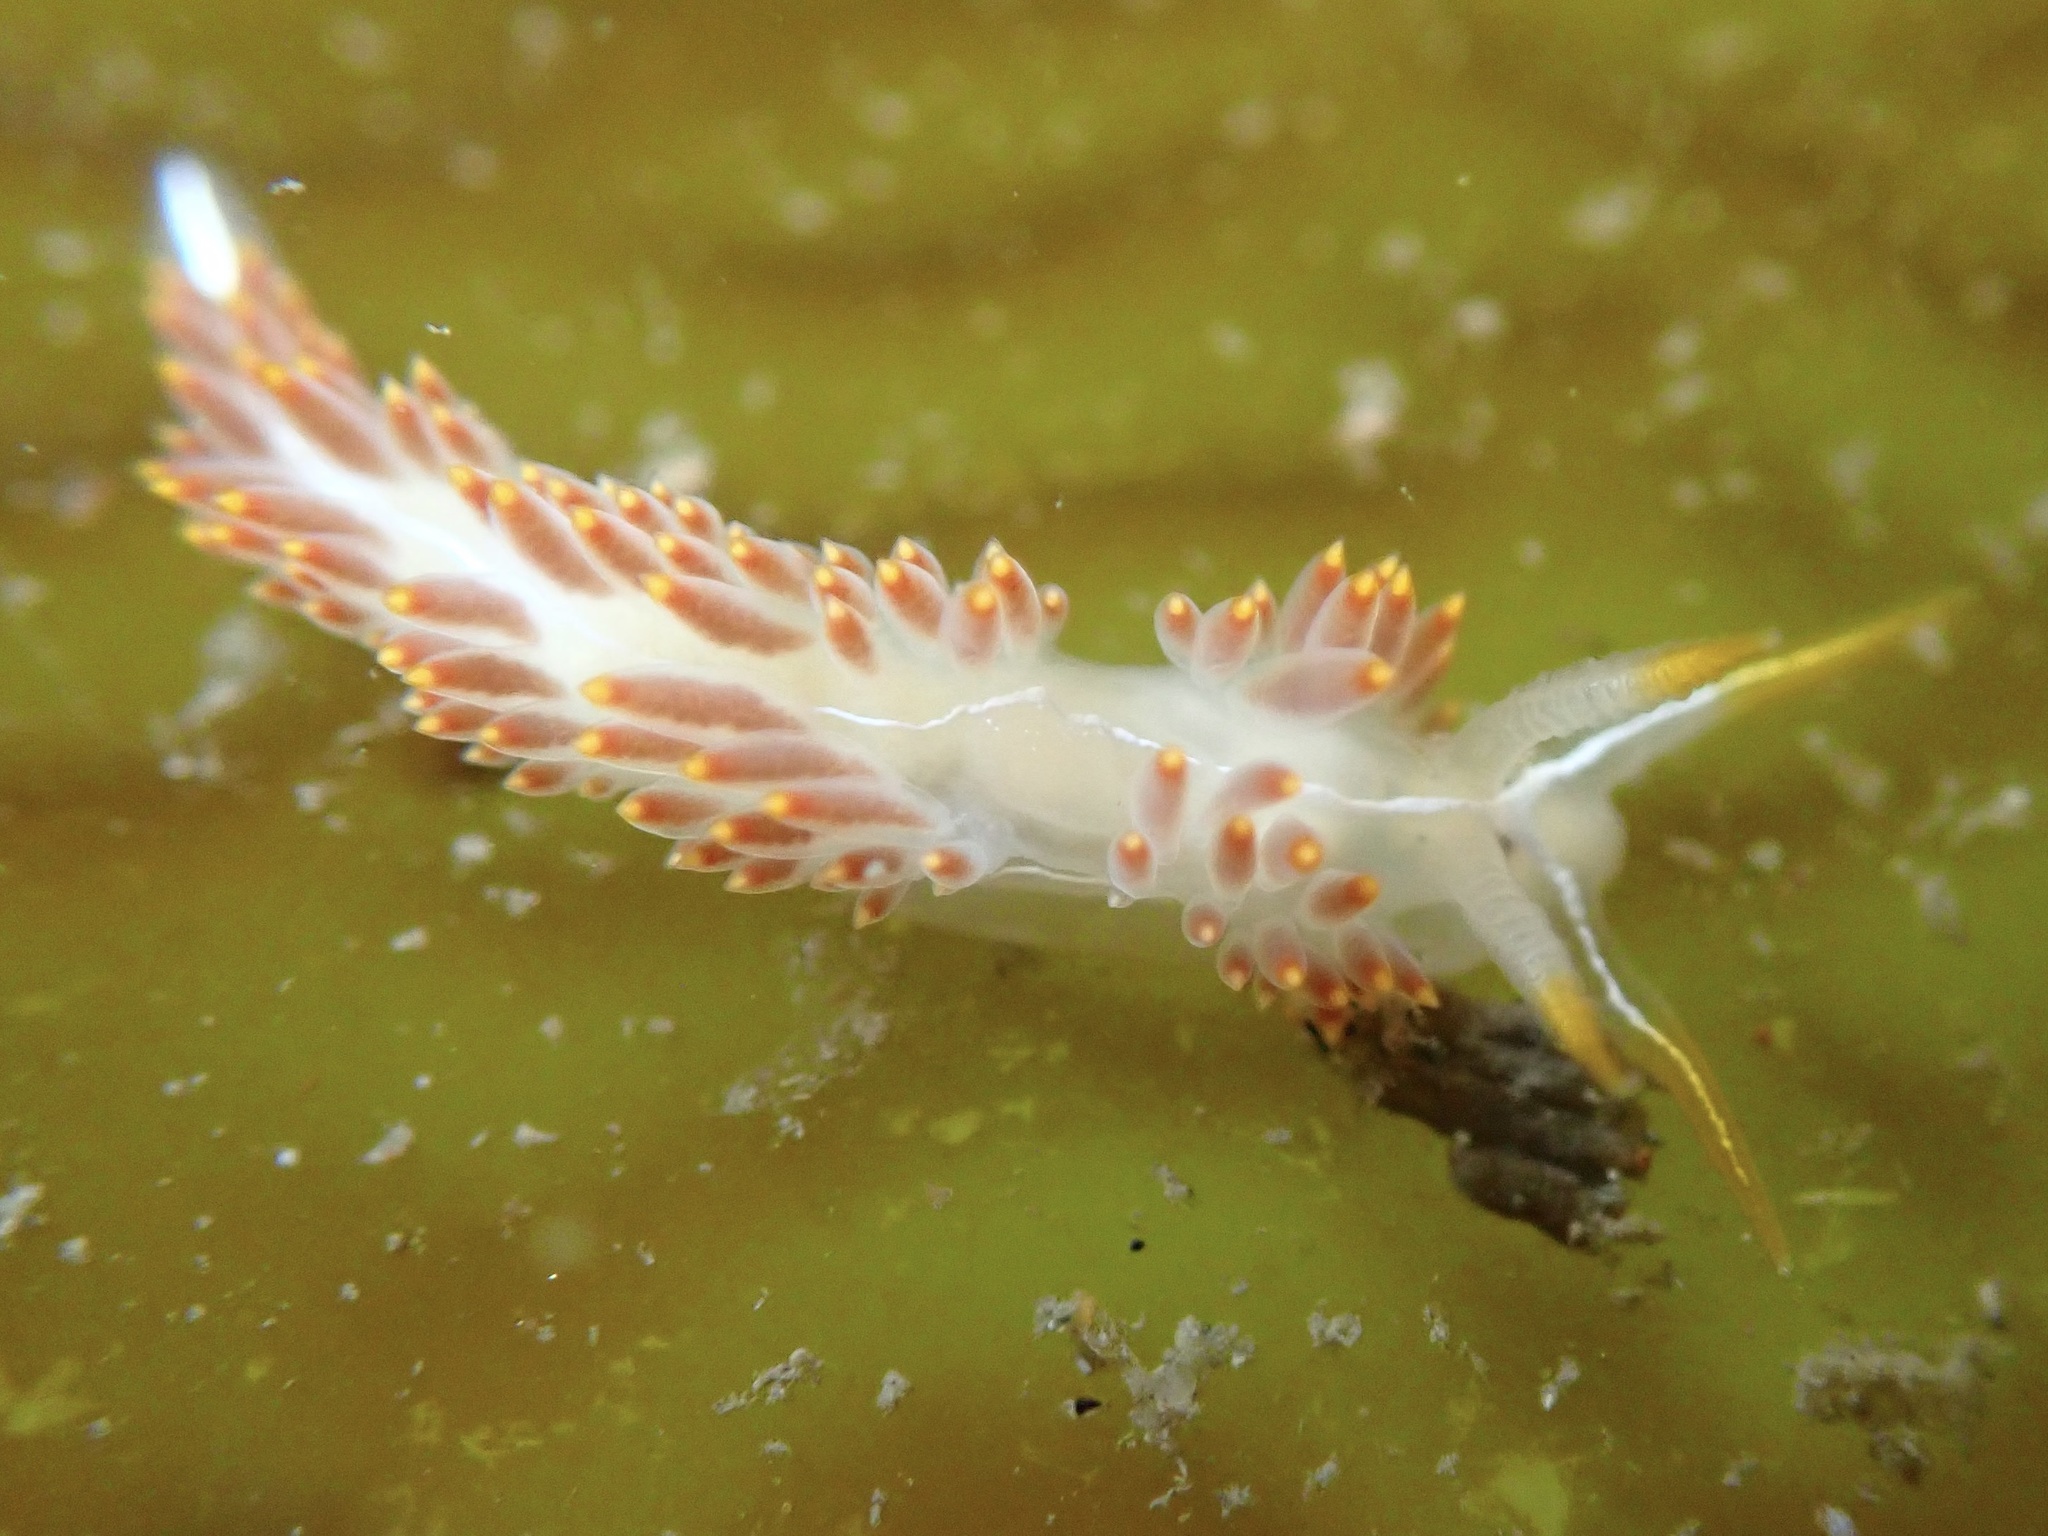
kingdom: Animalia
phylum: Mollusca
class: Gastropoda
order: Nudibranchia
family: Coryphellidae
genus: Coryphella
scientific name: Coryphella trilineata
